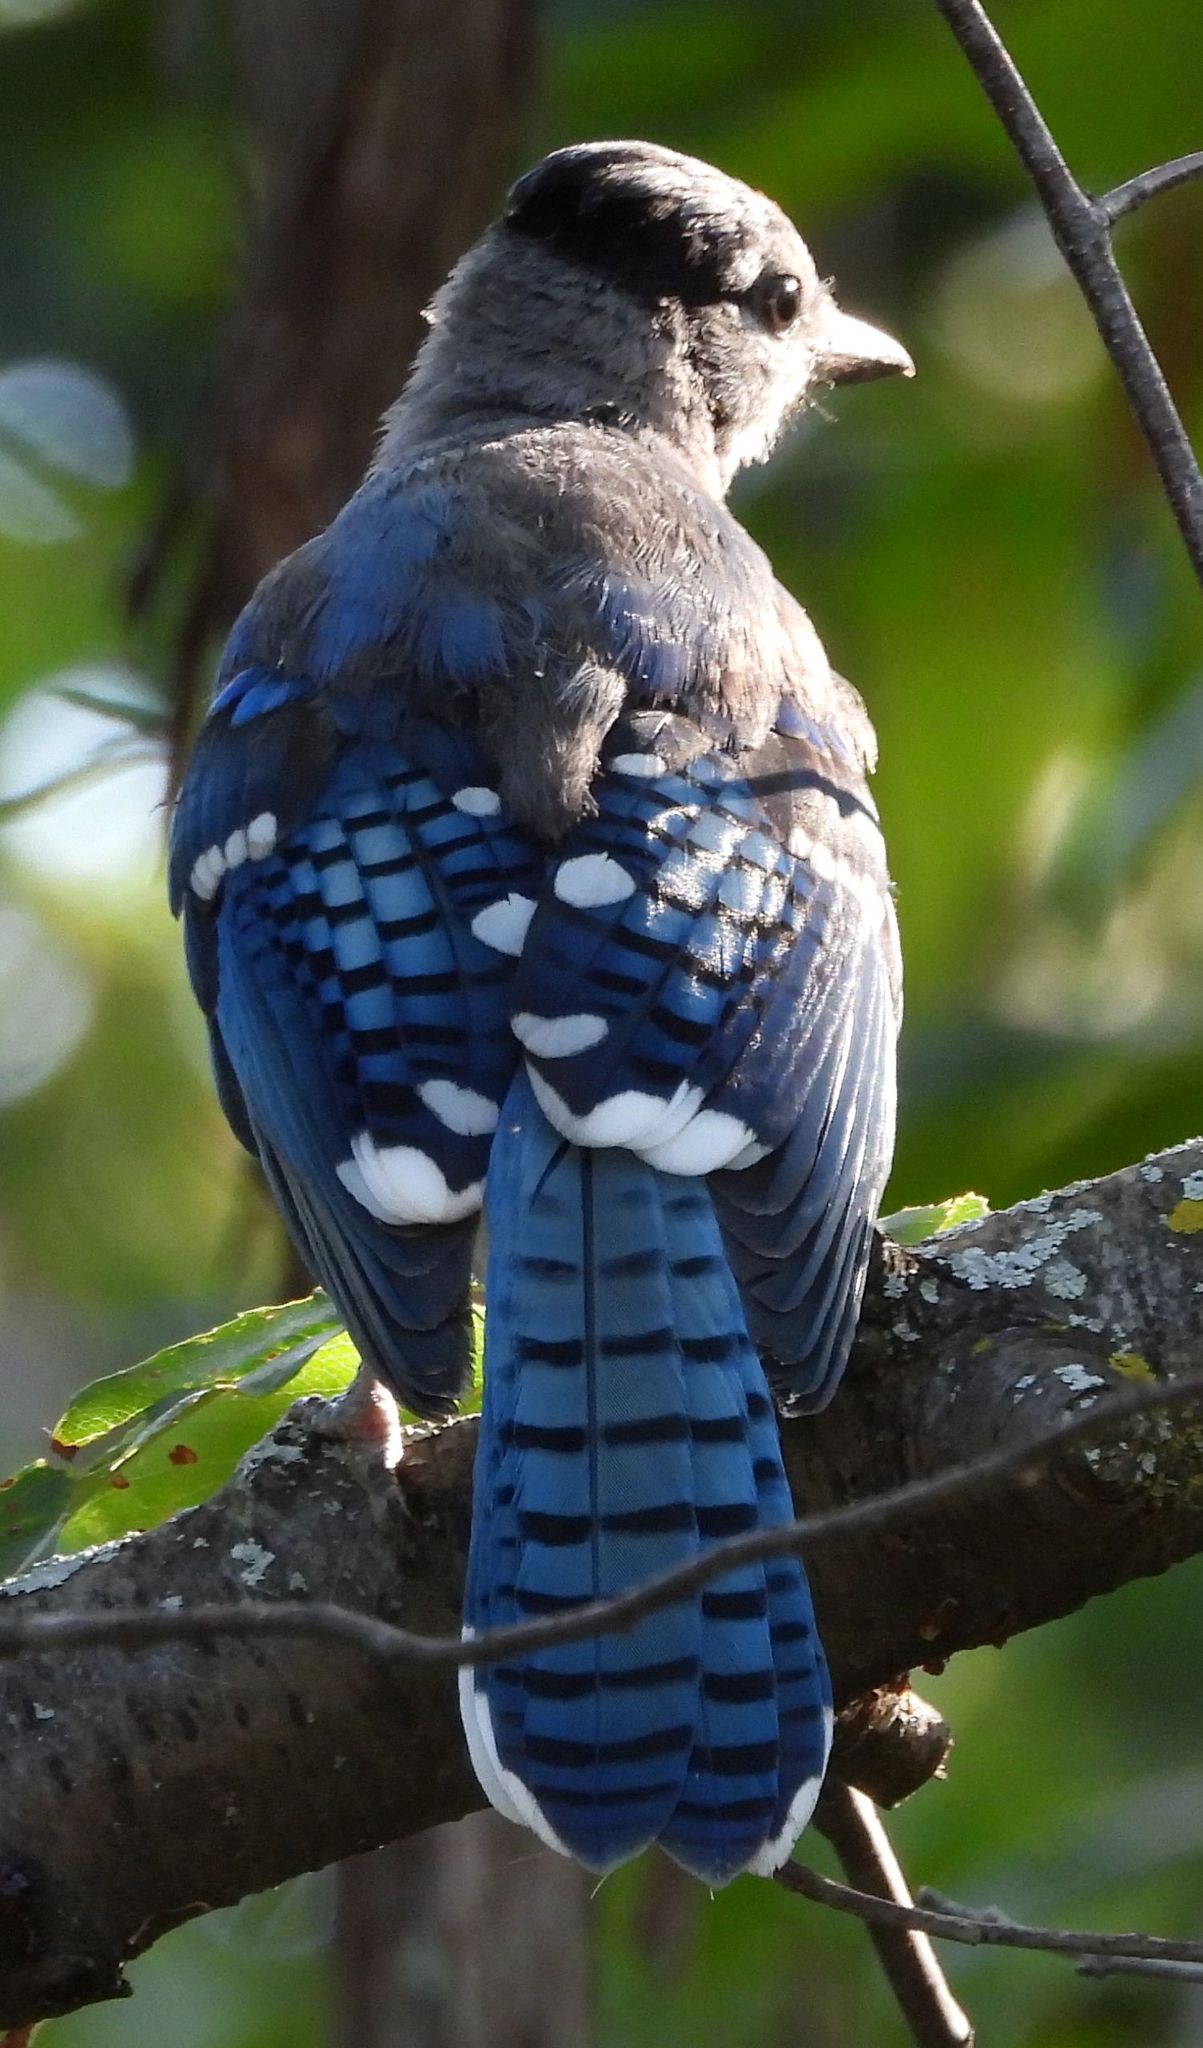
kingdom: Animalia
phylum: Chordata
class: Aves
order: Passeriformes
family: Corvidae
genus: Cyanocitta
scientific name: Cyanocitta cristata
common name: Blue jay
